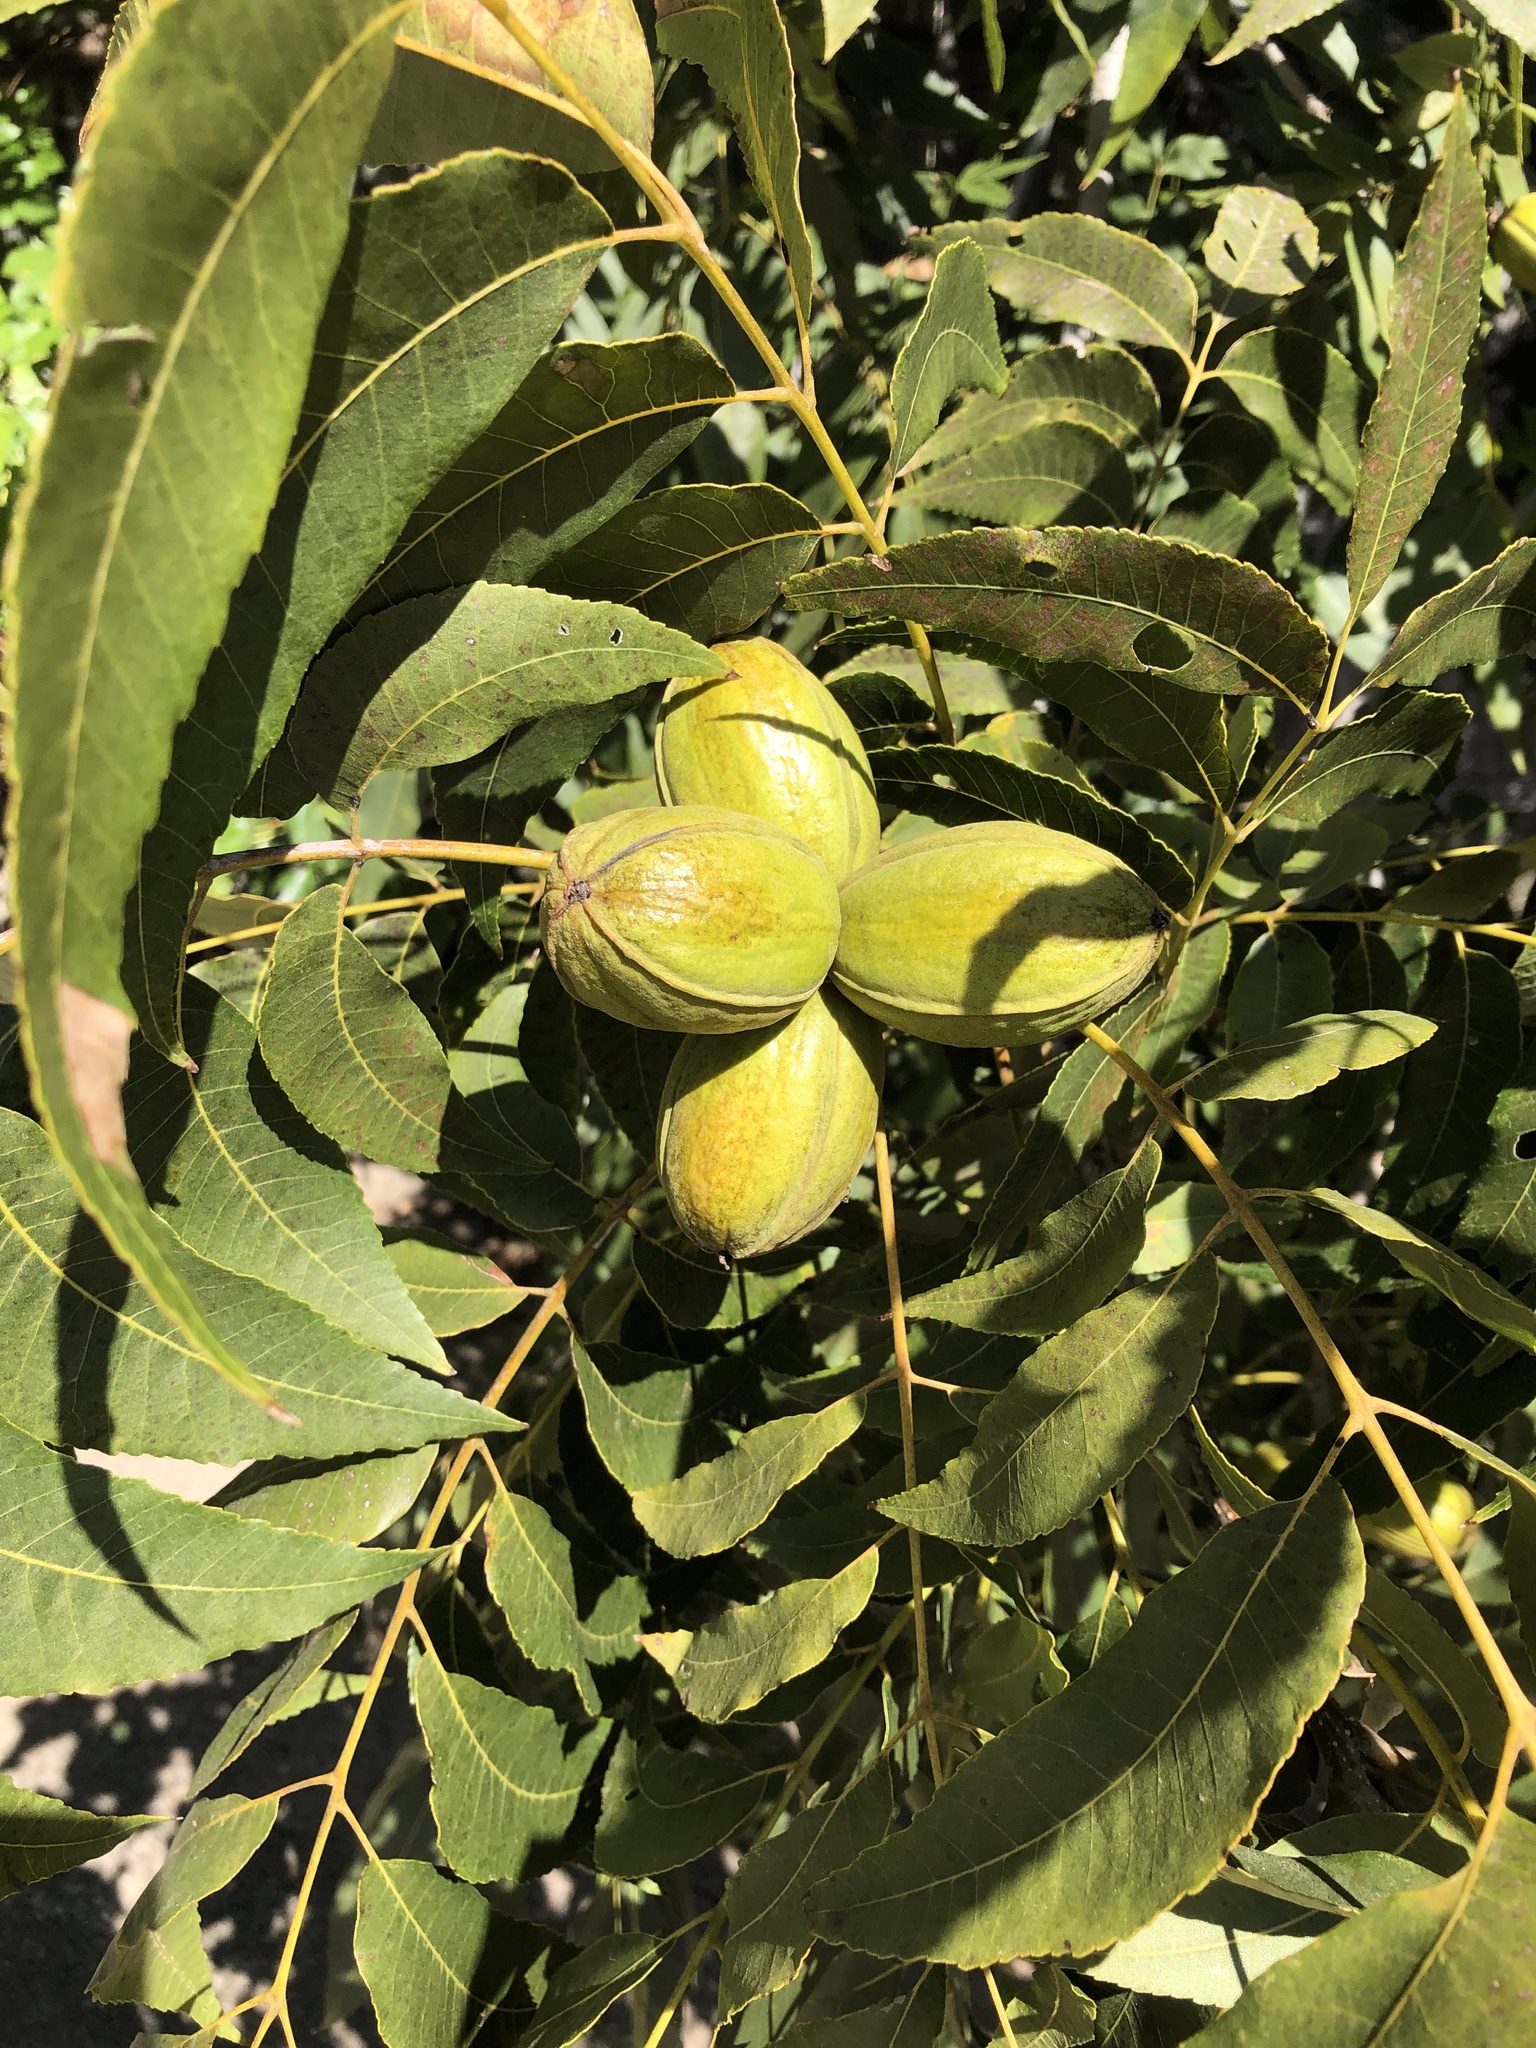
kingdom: Plantae
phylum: Tracheophyta
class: Magnoliopsida
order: Fagales
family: Juglandaceae
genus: Carya
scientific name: Carya illinoinensis
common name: Pecan
